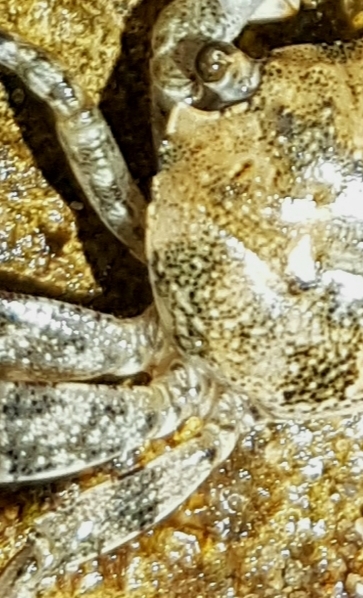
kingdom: Animalia
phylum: Arthropoda
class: Malacostraca
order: Decapoda
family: Leptograpsodidae
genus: Leptograpsodes
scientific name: Leptograpsodes octodentatus
